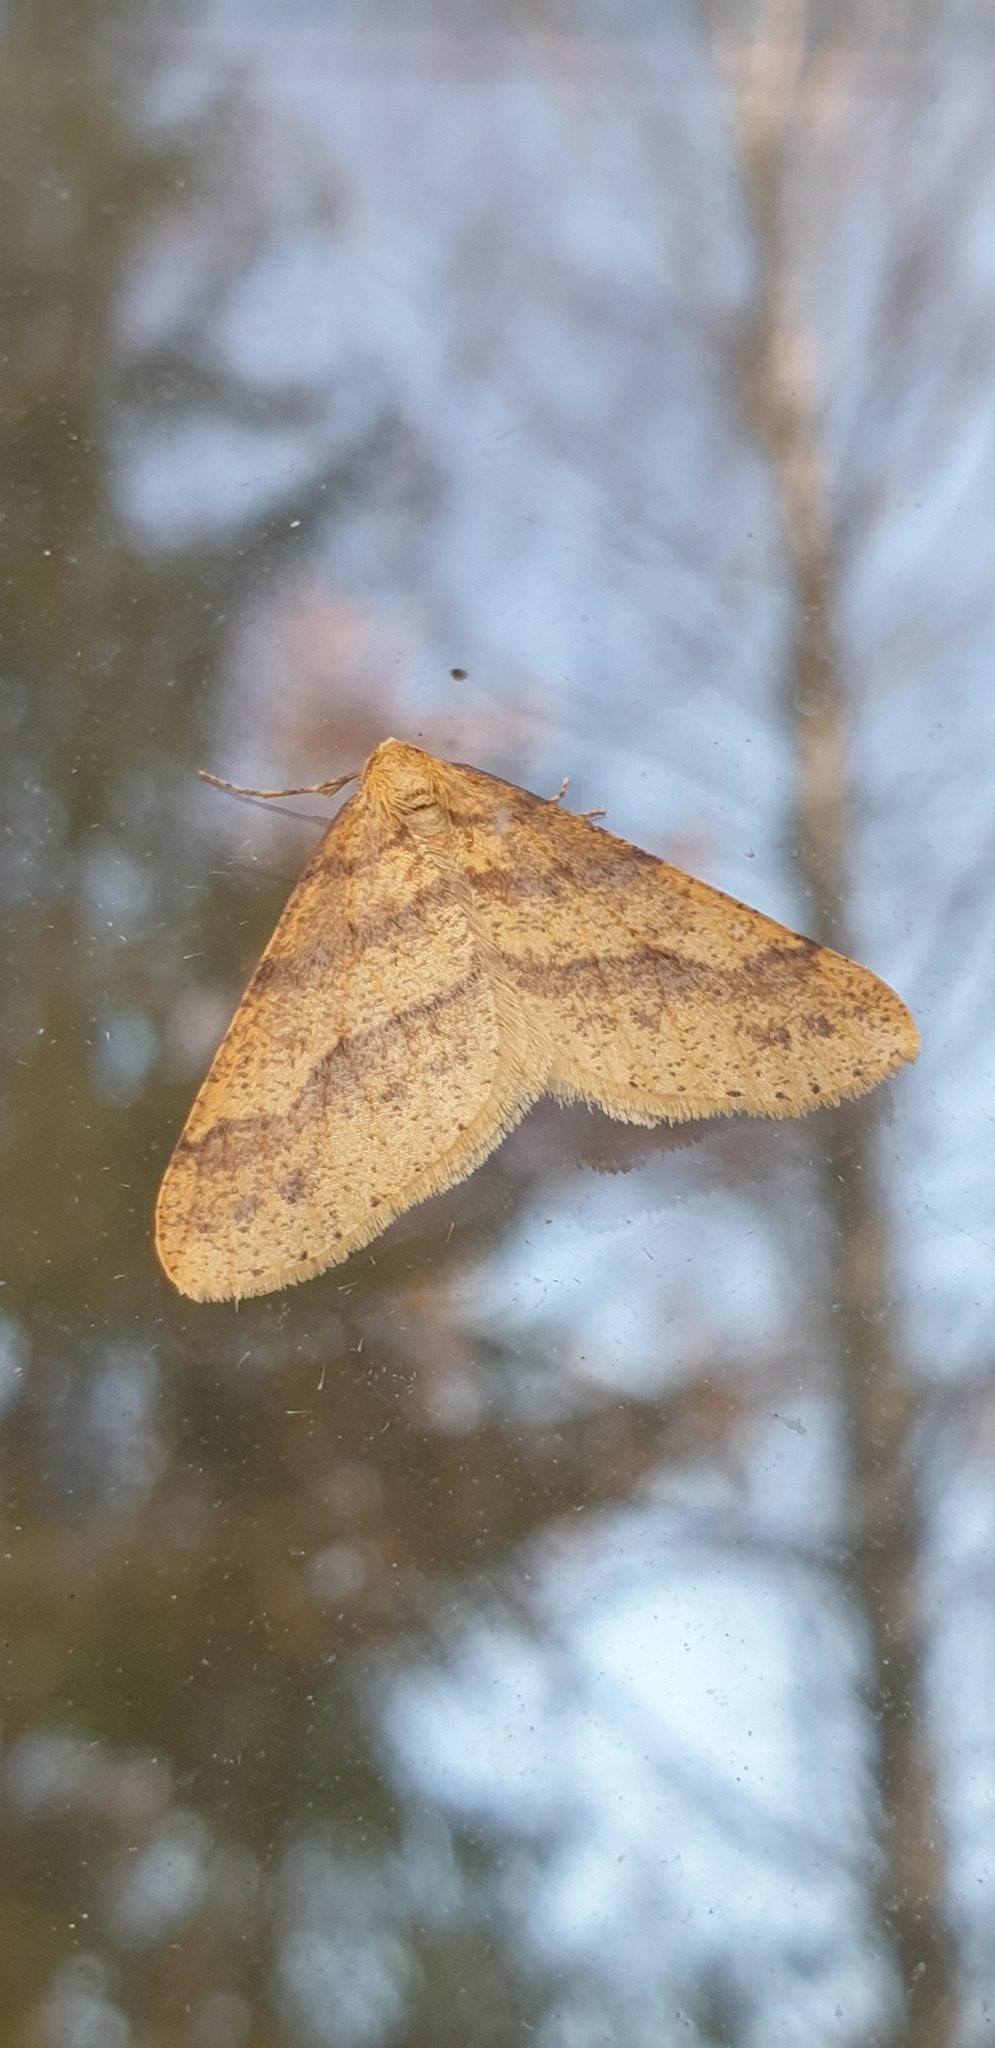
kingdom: Animalia
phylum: Arthropoda
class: Insecta
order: Lepidoptera
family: Geometridae
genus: Agriopis
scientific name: Agriopis aurantiaria
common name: Scarce umber
